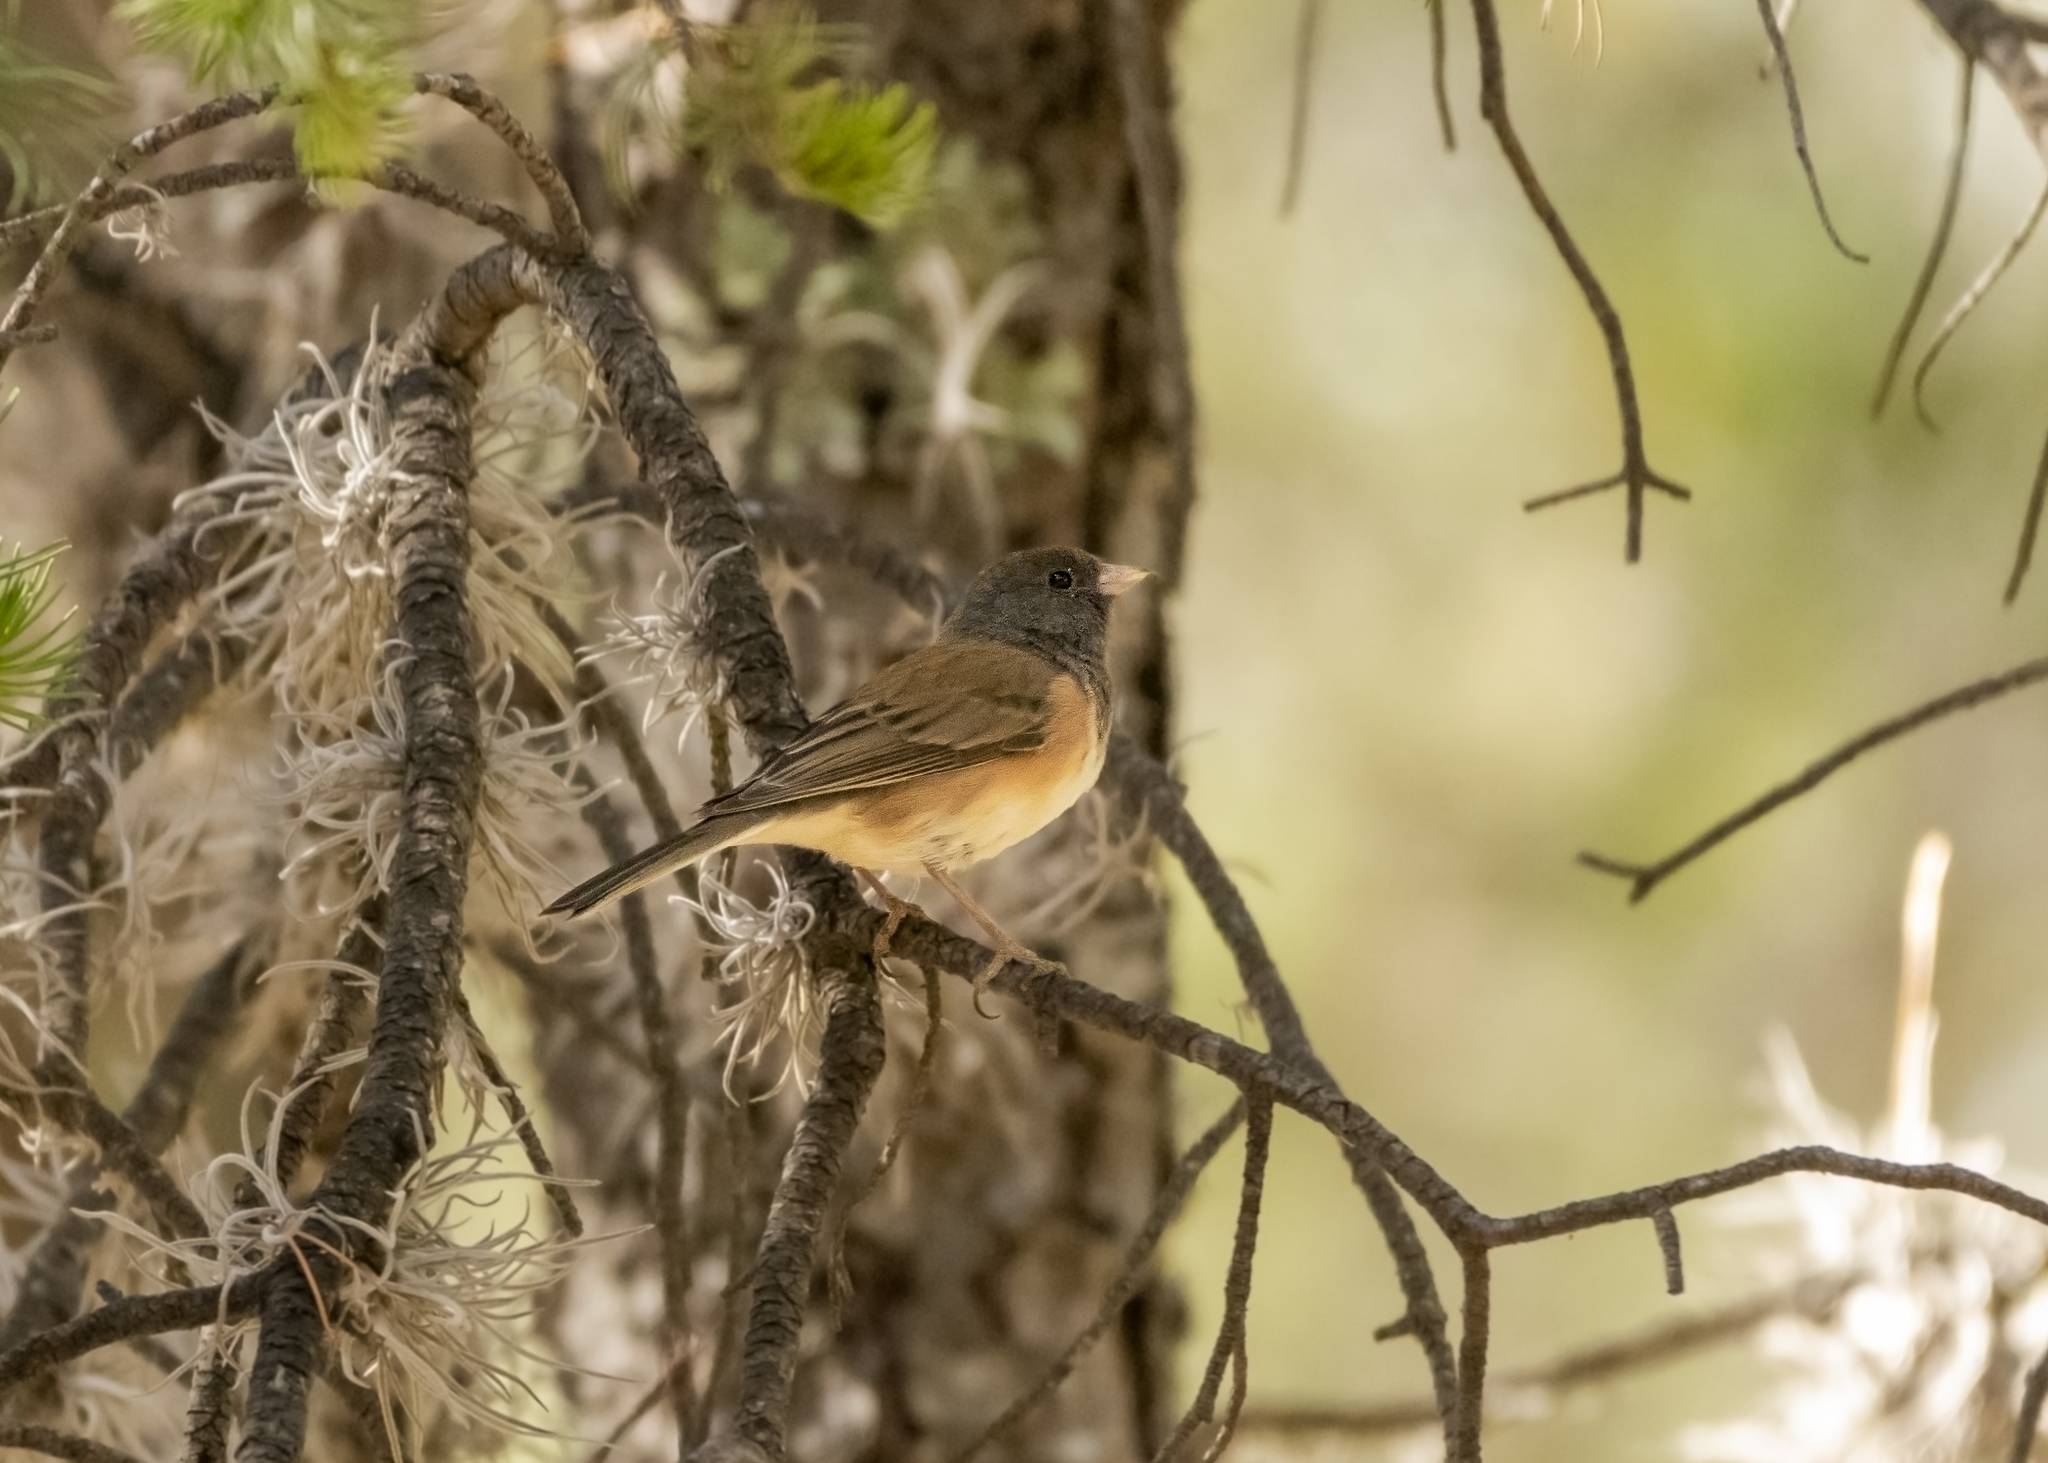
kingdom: Animalia
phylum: Chordata
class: Aves
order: Passeriformes
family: Passerellidae
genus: Junco
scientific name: Junco hyemalis
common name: Dark-eyed junco
